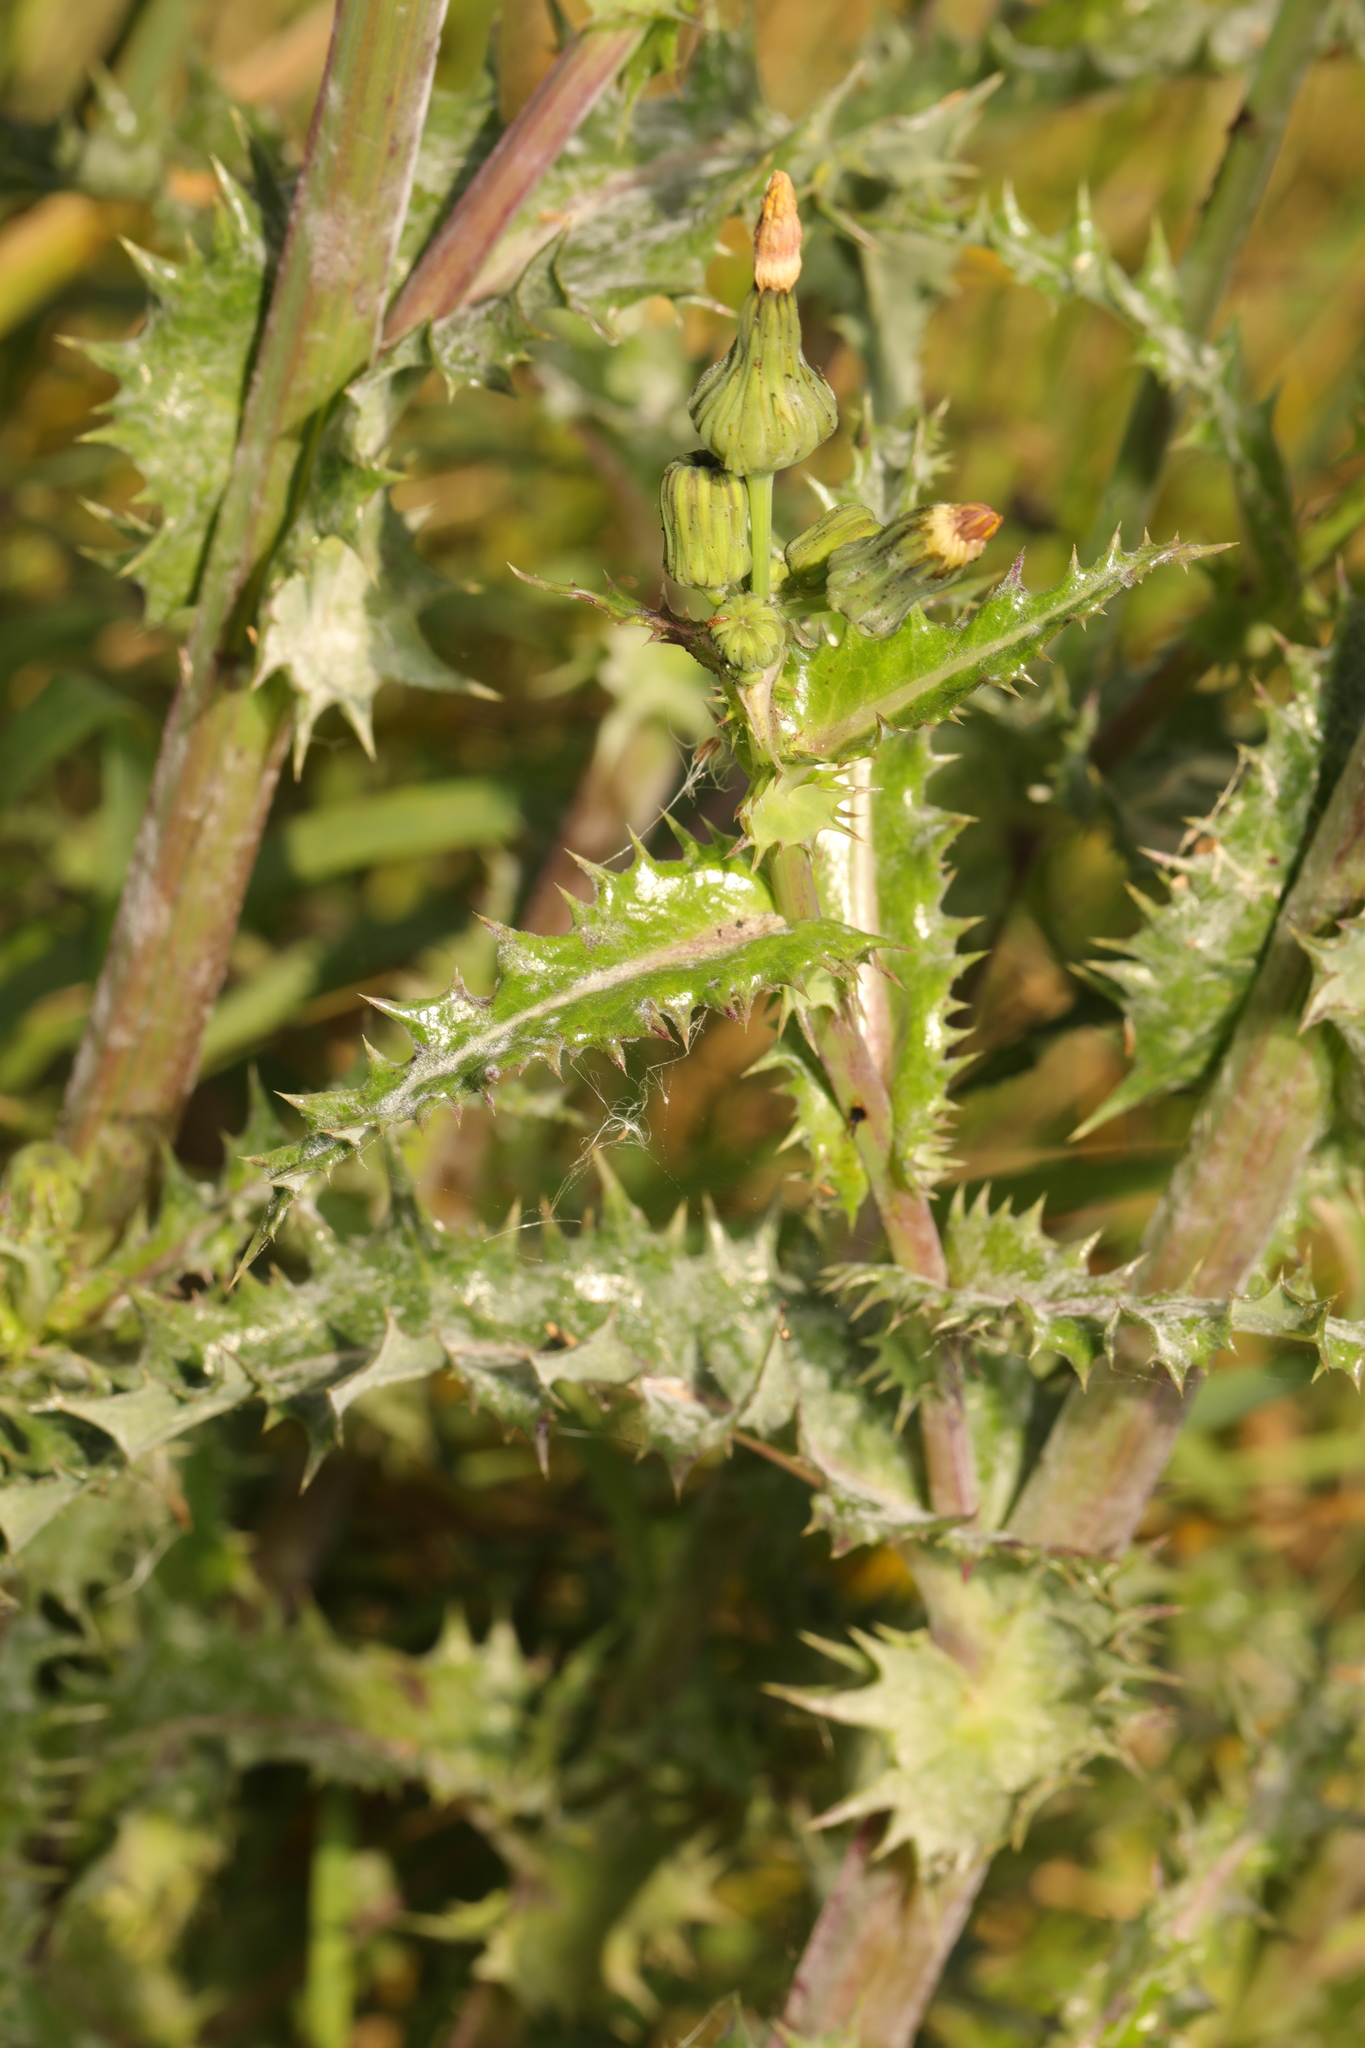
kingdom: Plantae
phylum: Tracheophyta
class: Magnoliopsida
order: Asterales
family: Asteraceae
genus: Sonchus
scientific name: Sonchus asper
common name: Prickly sow-thistle
